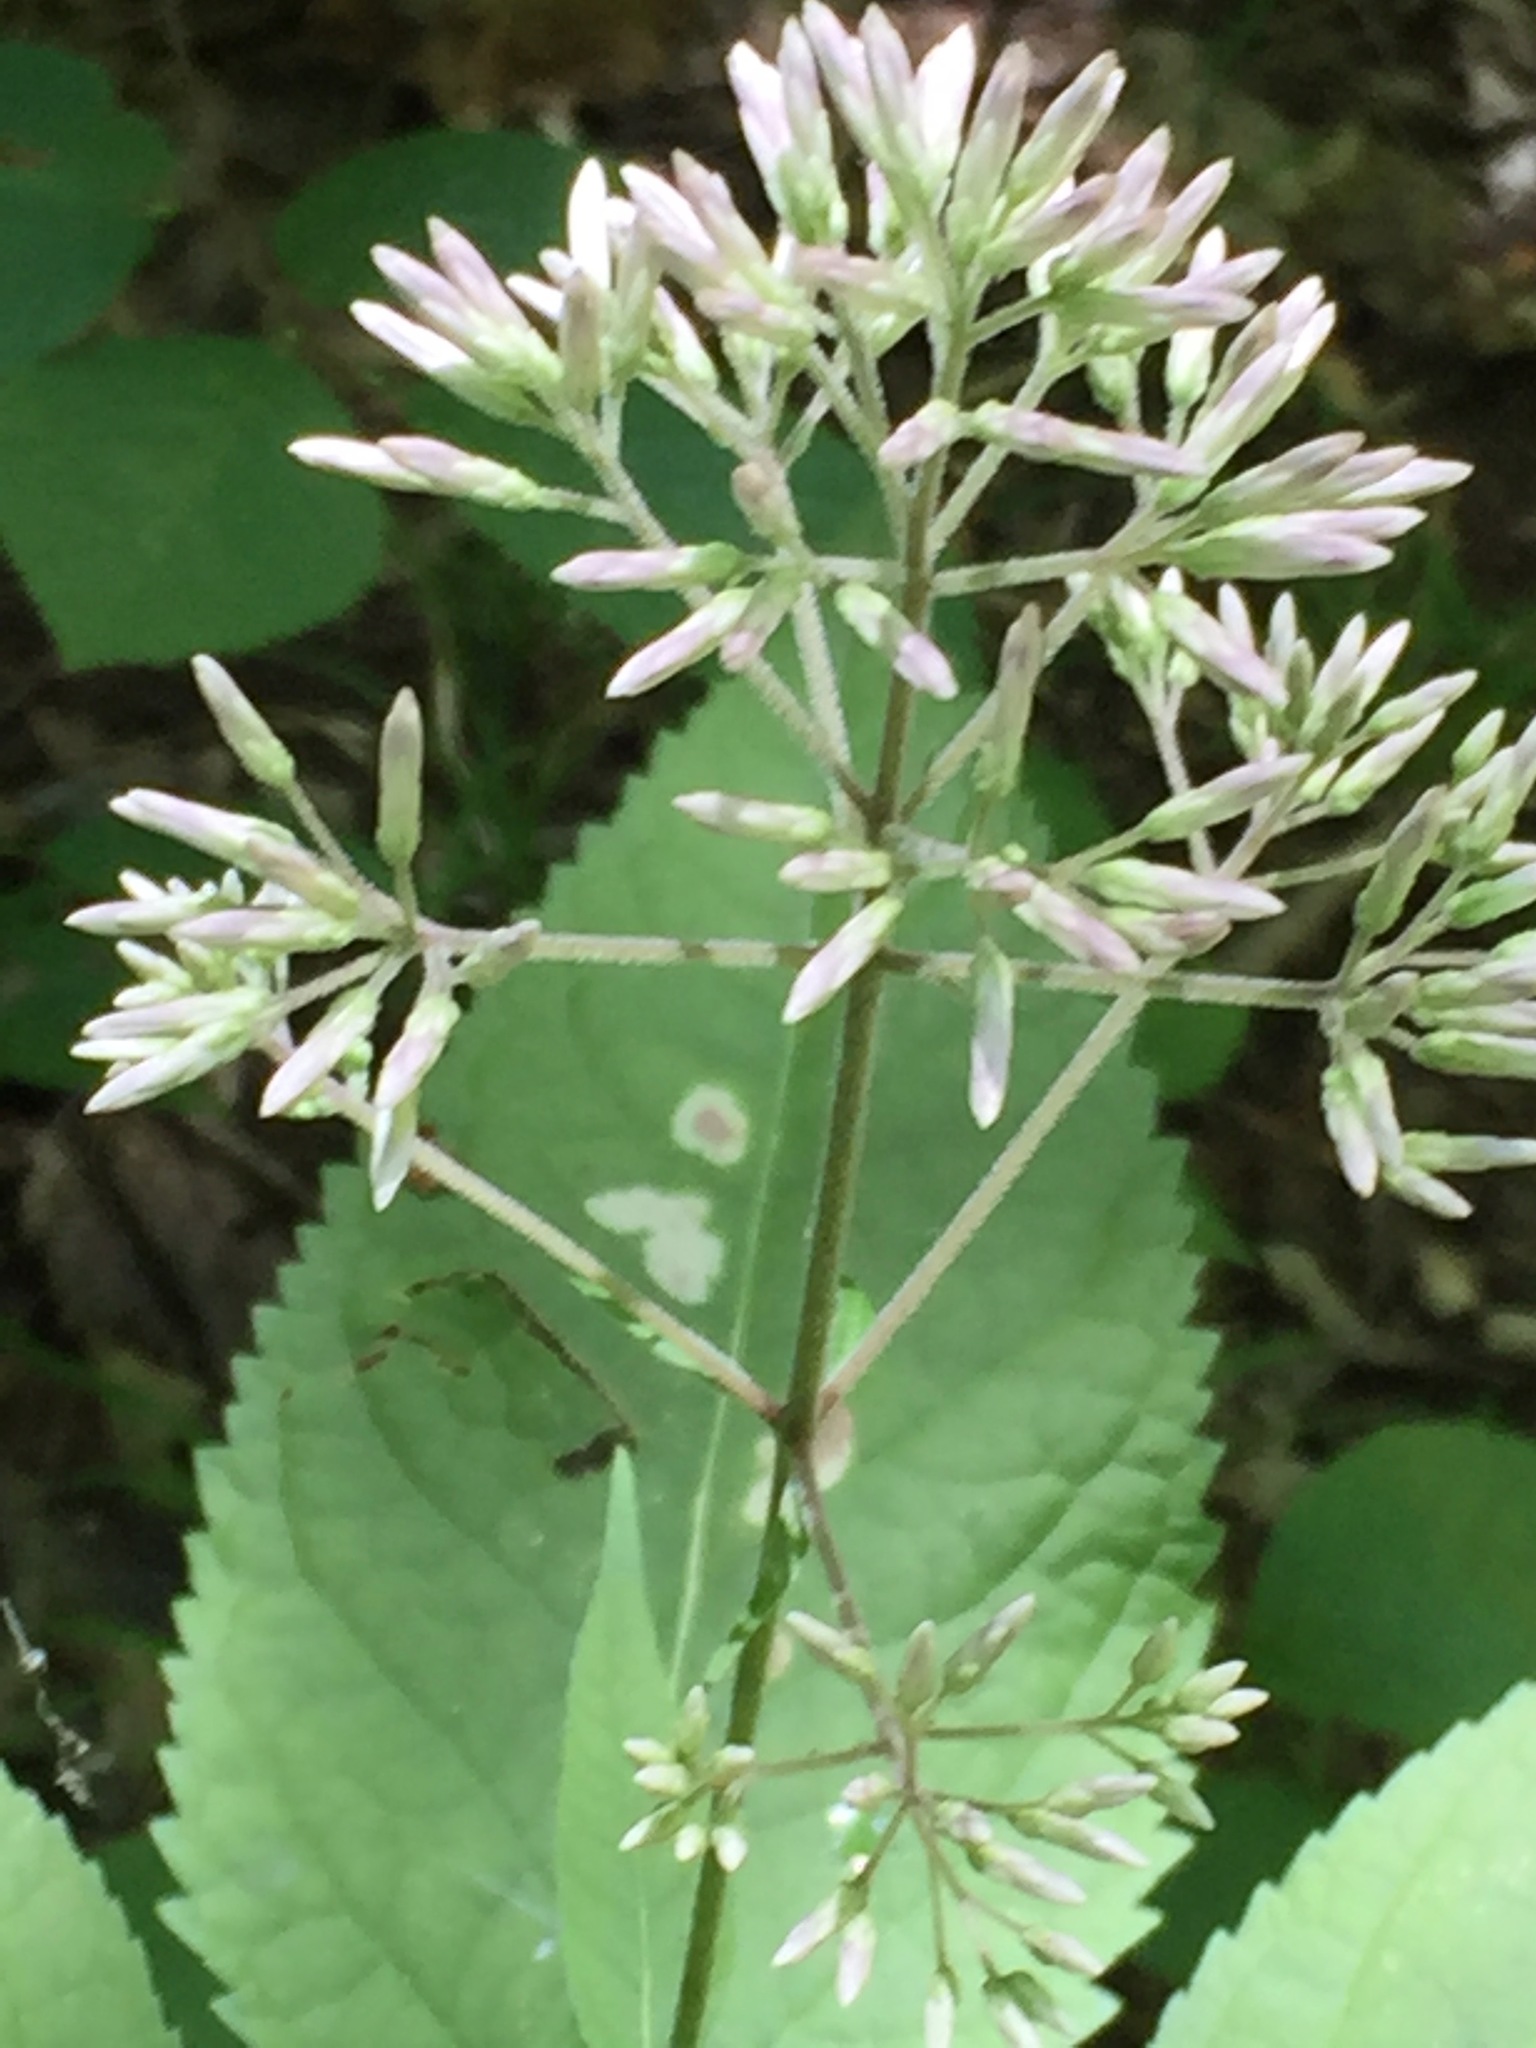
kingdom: Plantae
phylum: Tracheophyta
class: Magnoliopsida
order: Asterales
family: Asteraceae
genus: Eutrochium
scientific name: Eutrochium purpureum
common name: Gravelroot
